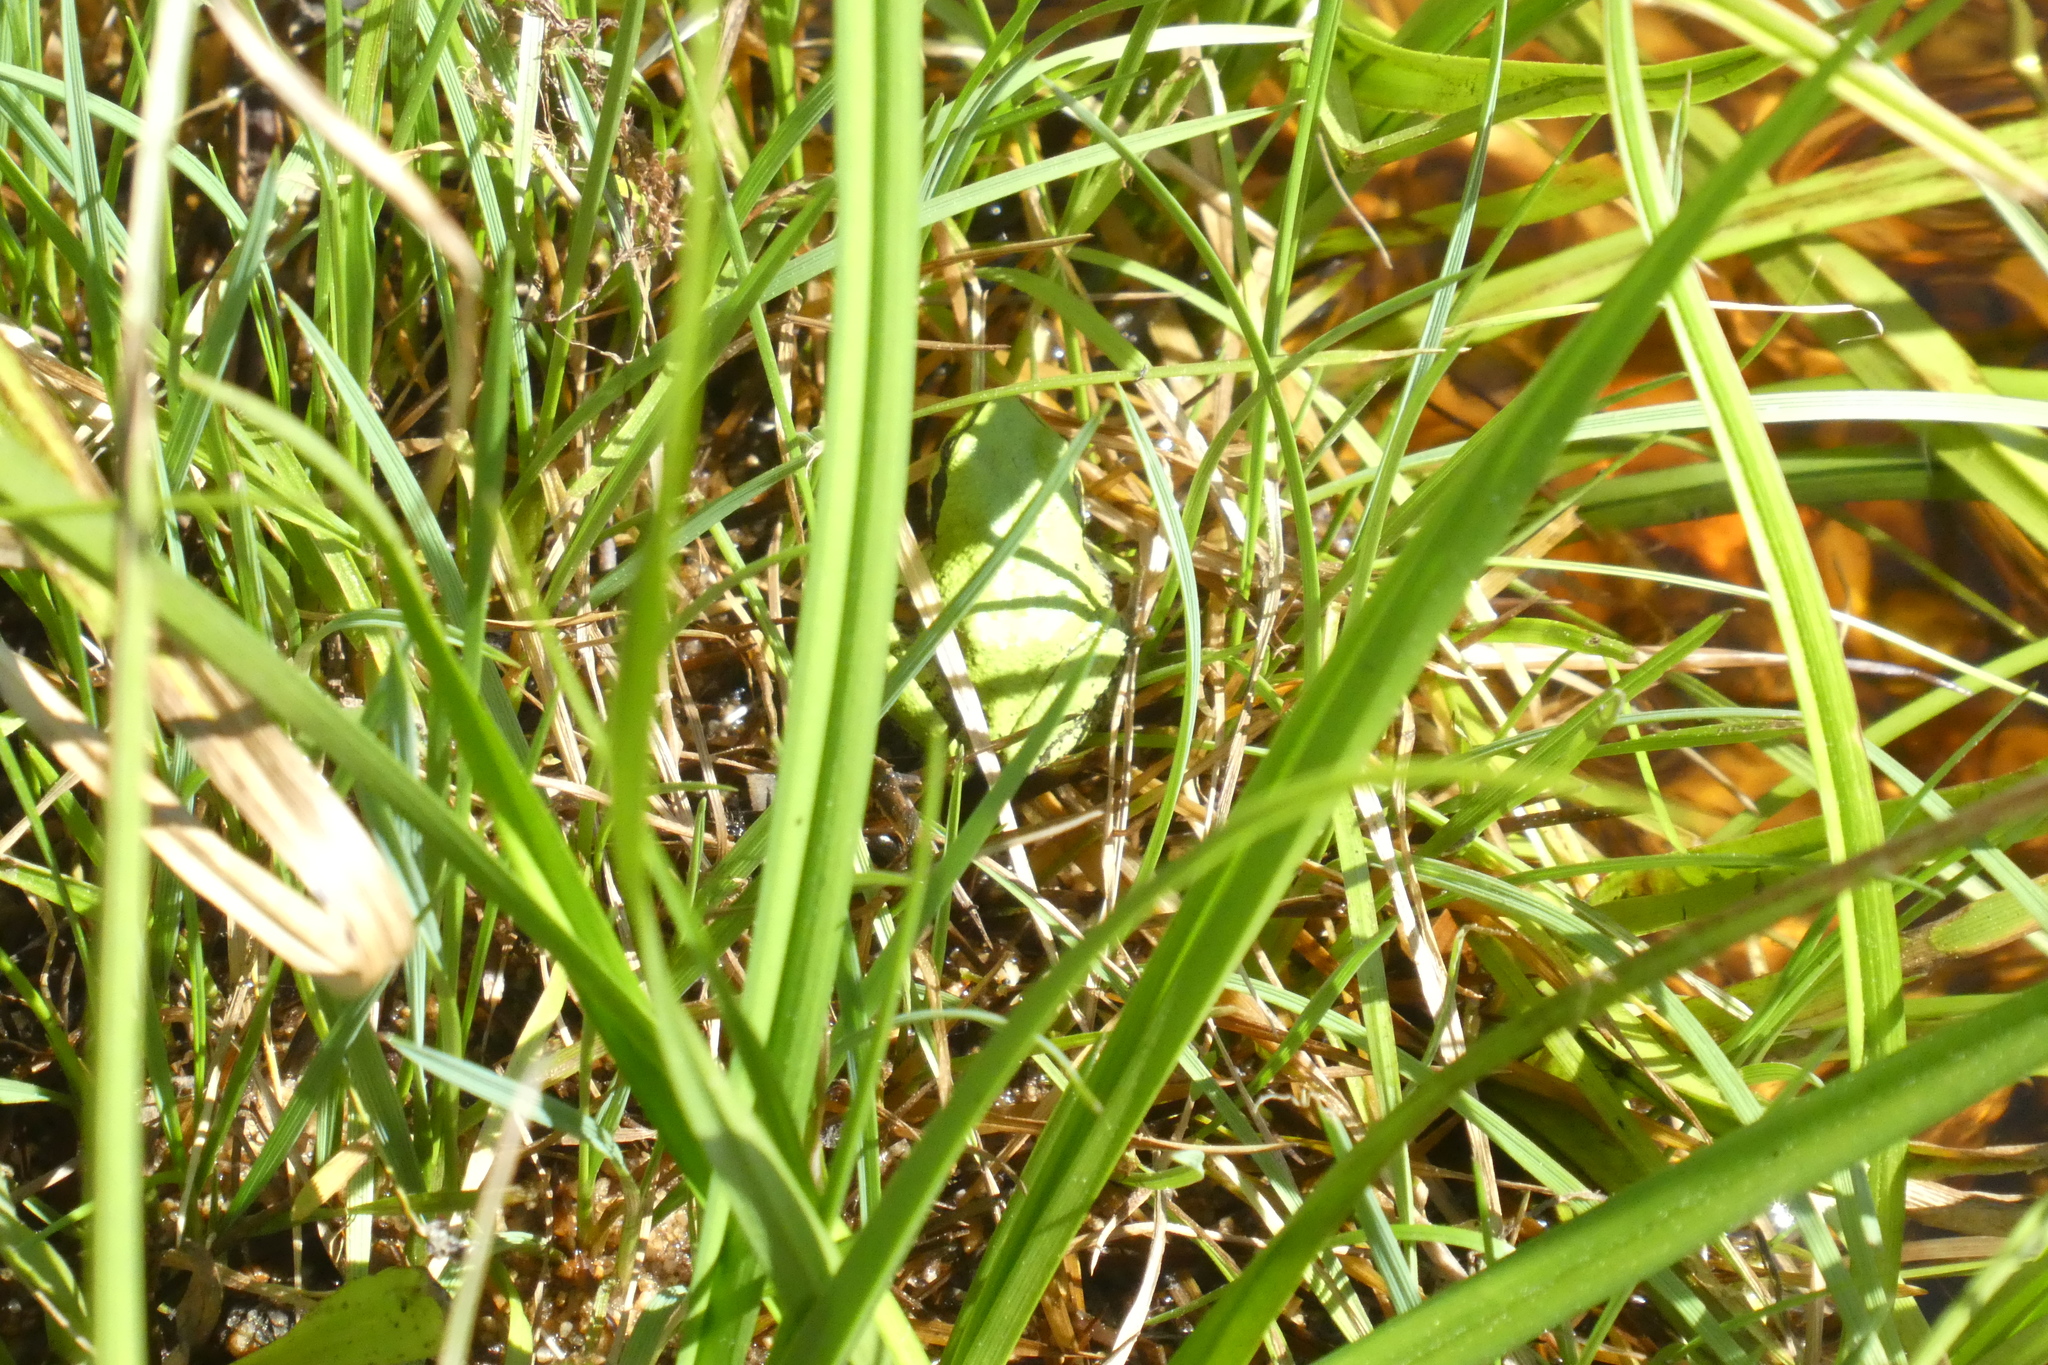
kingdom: Animalia
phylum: Chordata
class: Amphibia
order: Anura
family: Hylidae
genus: Pseudacris
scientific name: Pseudacris regilla
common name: Pacific chorus frog
